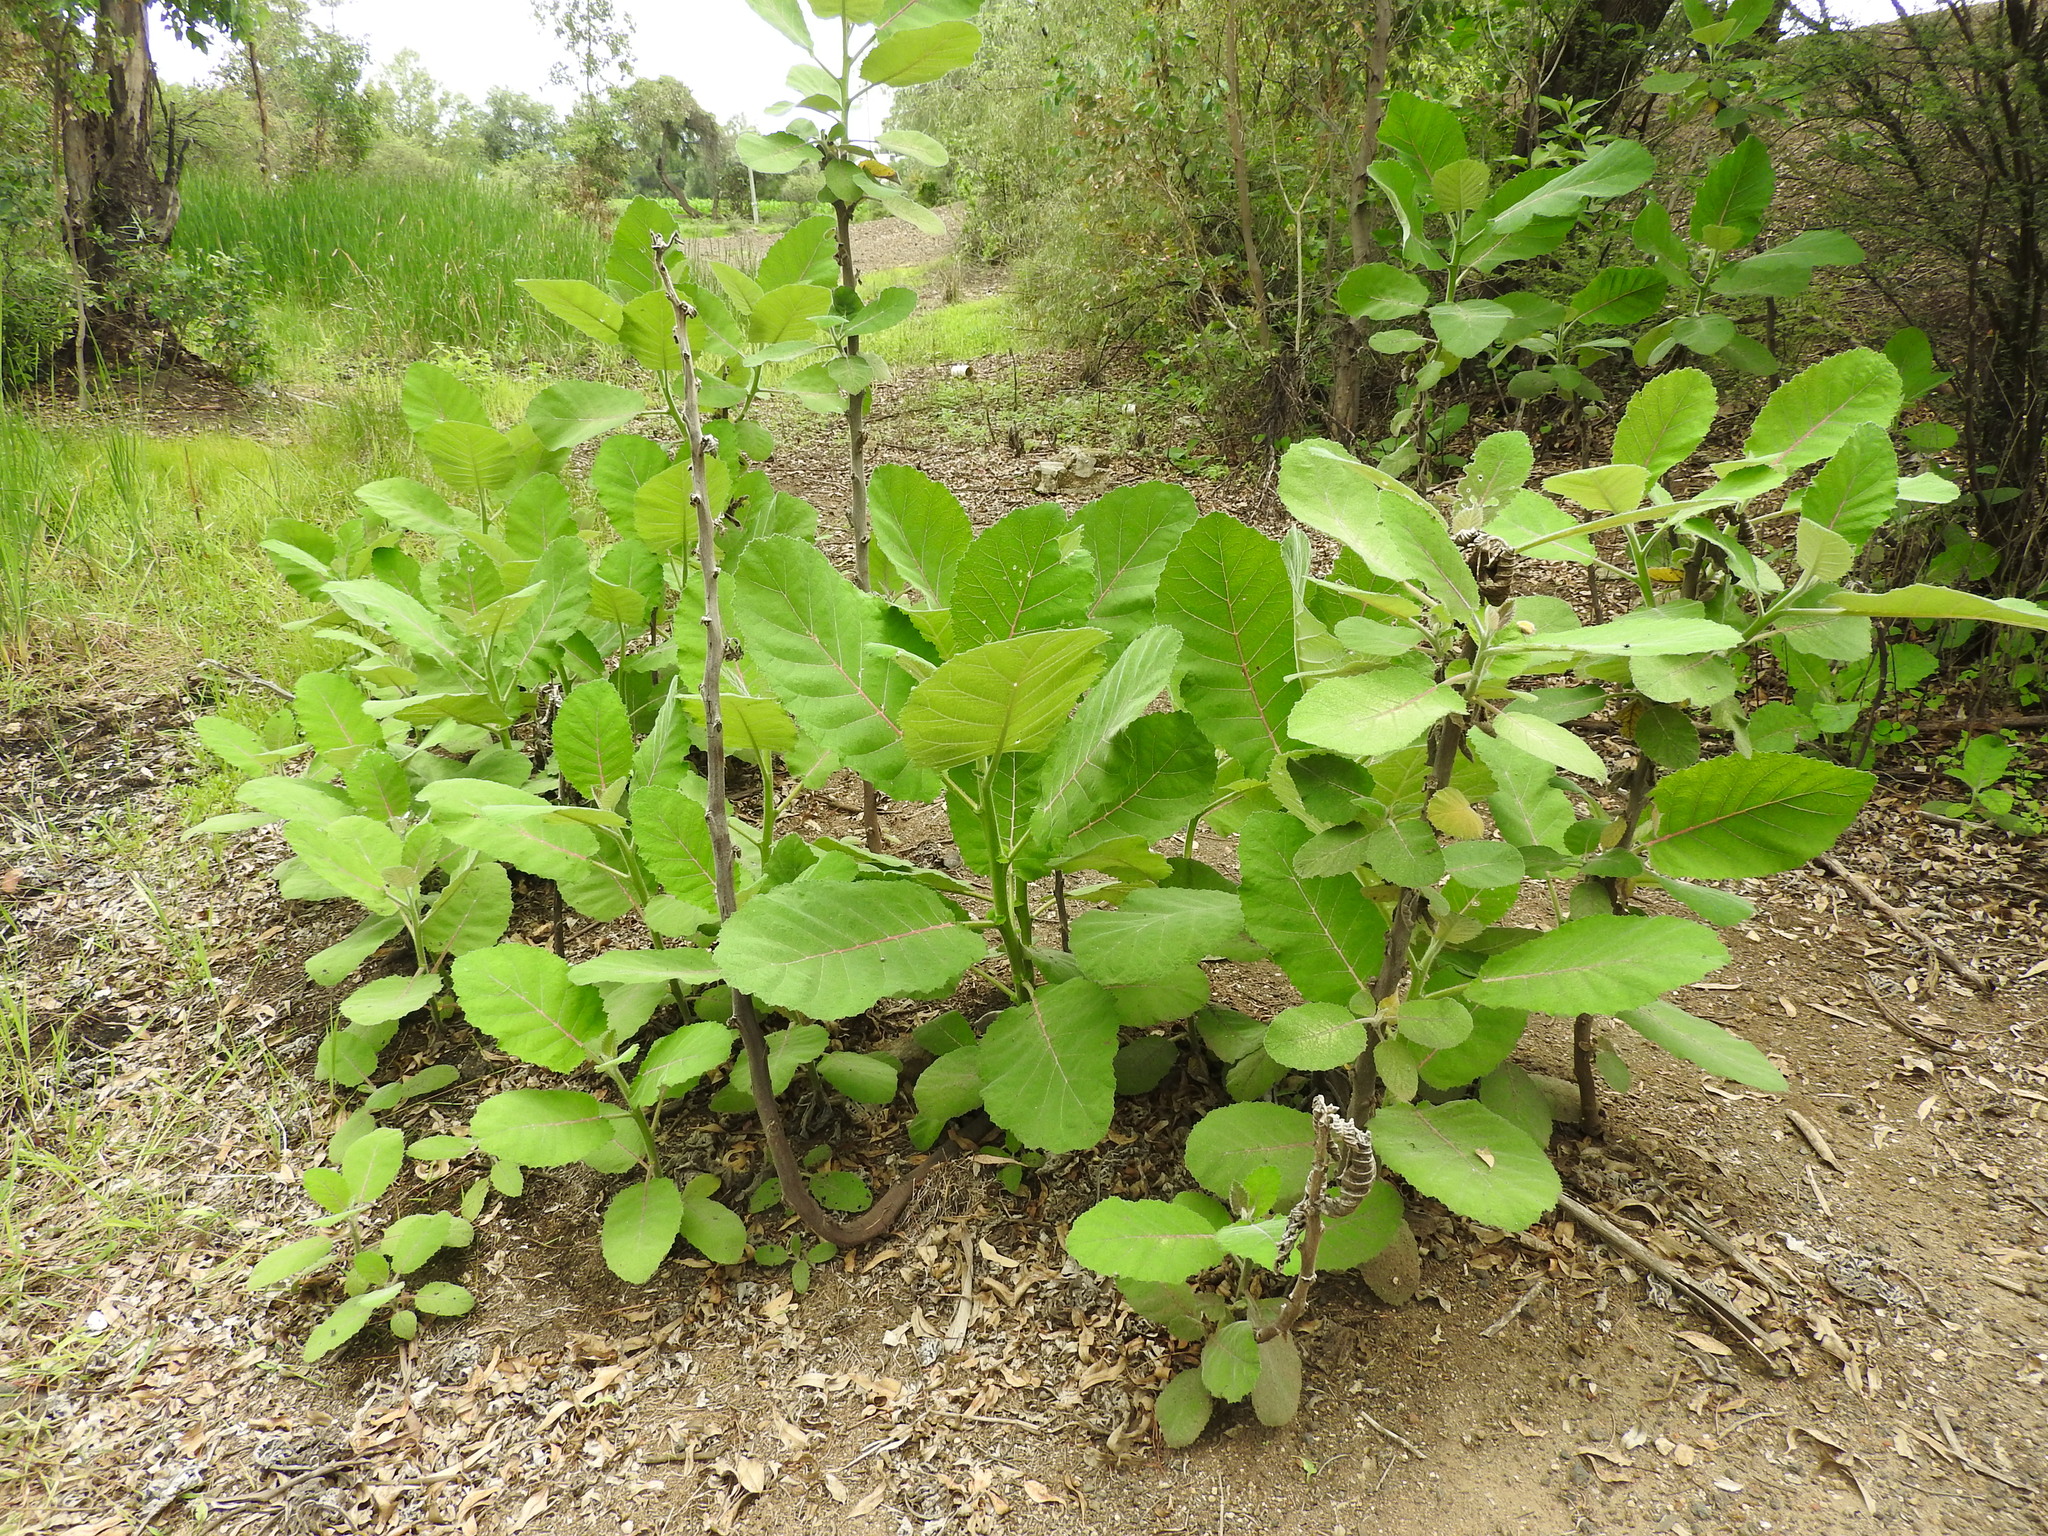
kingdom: Plantae
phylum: Tracheophyta
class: Magnoliopsida
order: Boraginales
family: Namaceae
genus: Wigandia
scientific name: Wigandia urens
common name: Caracus wigandia
